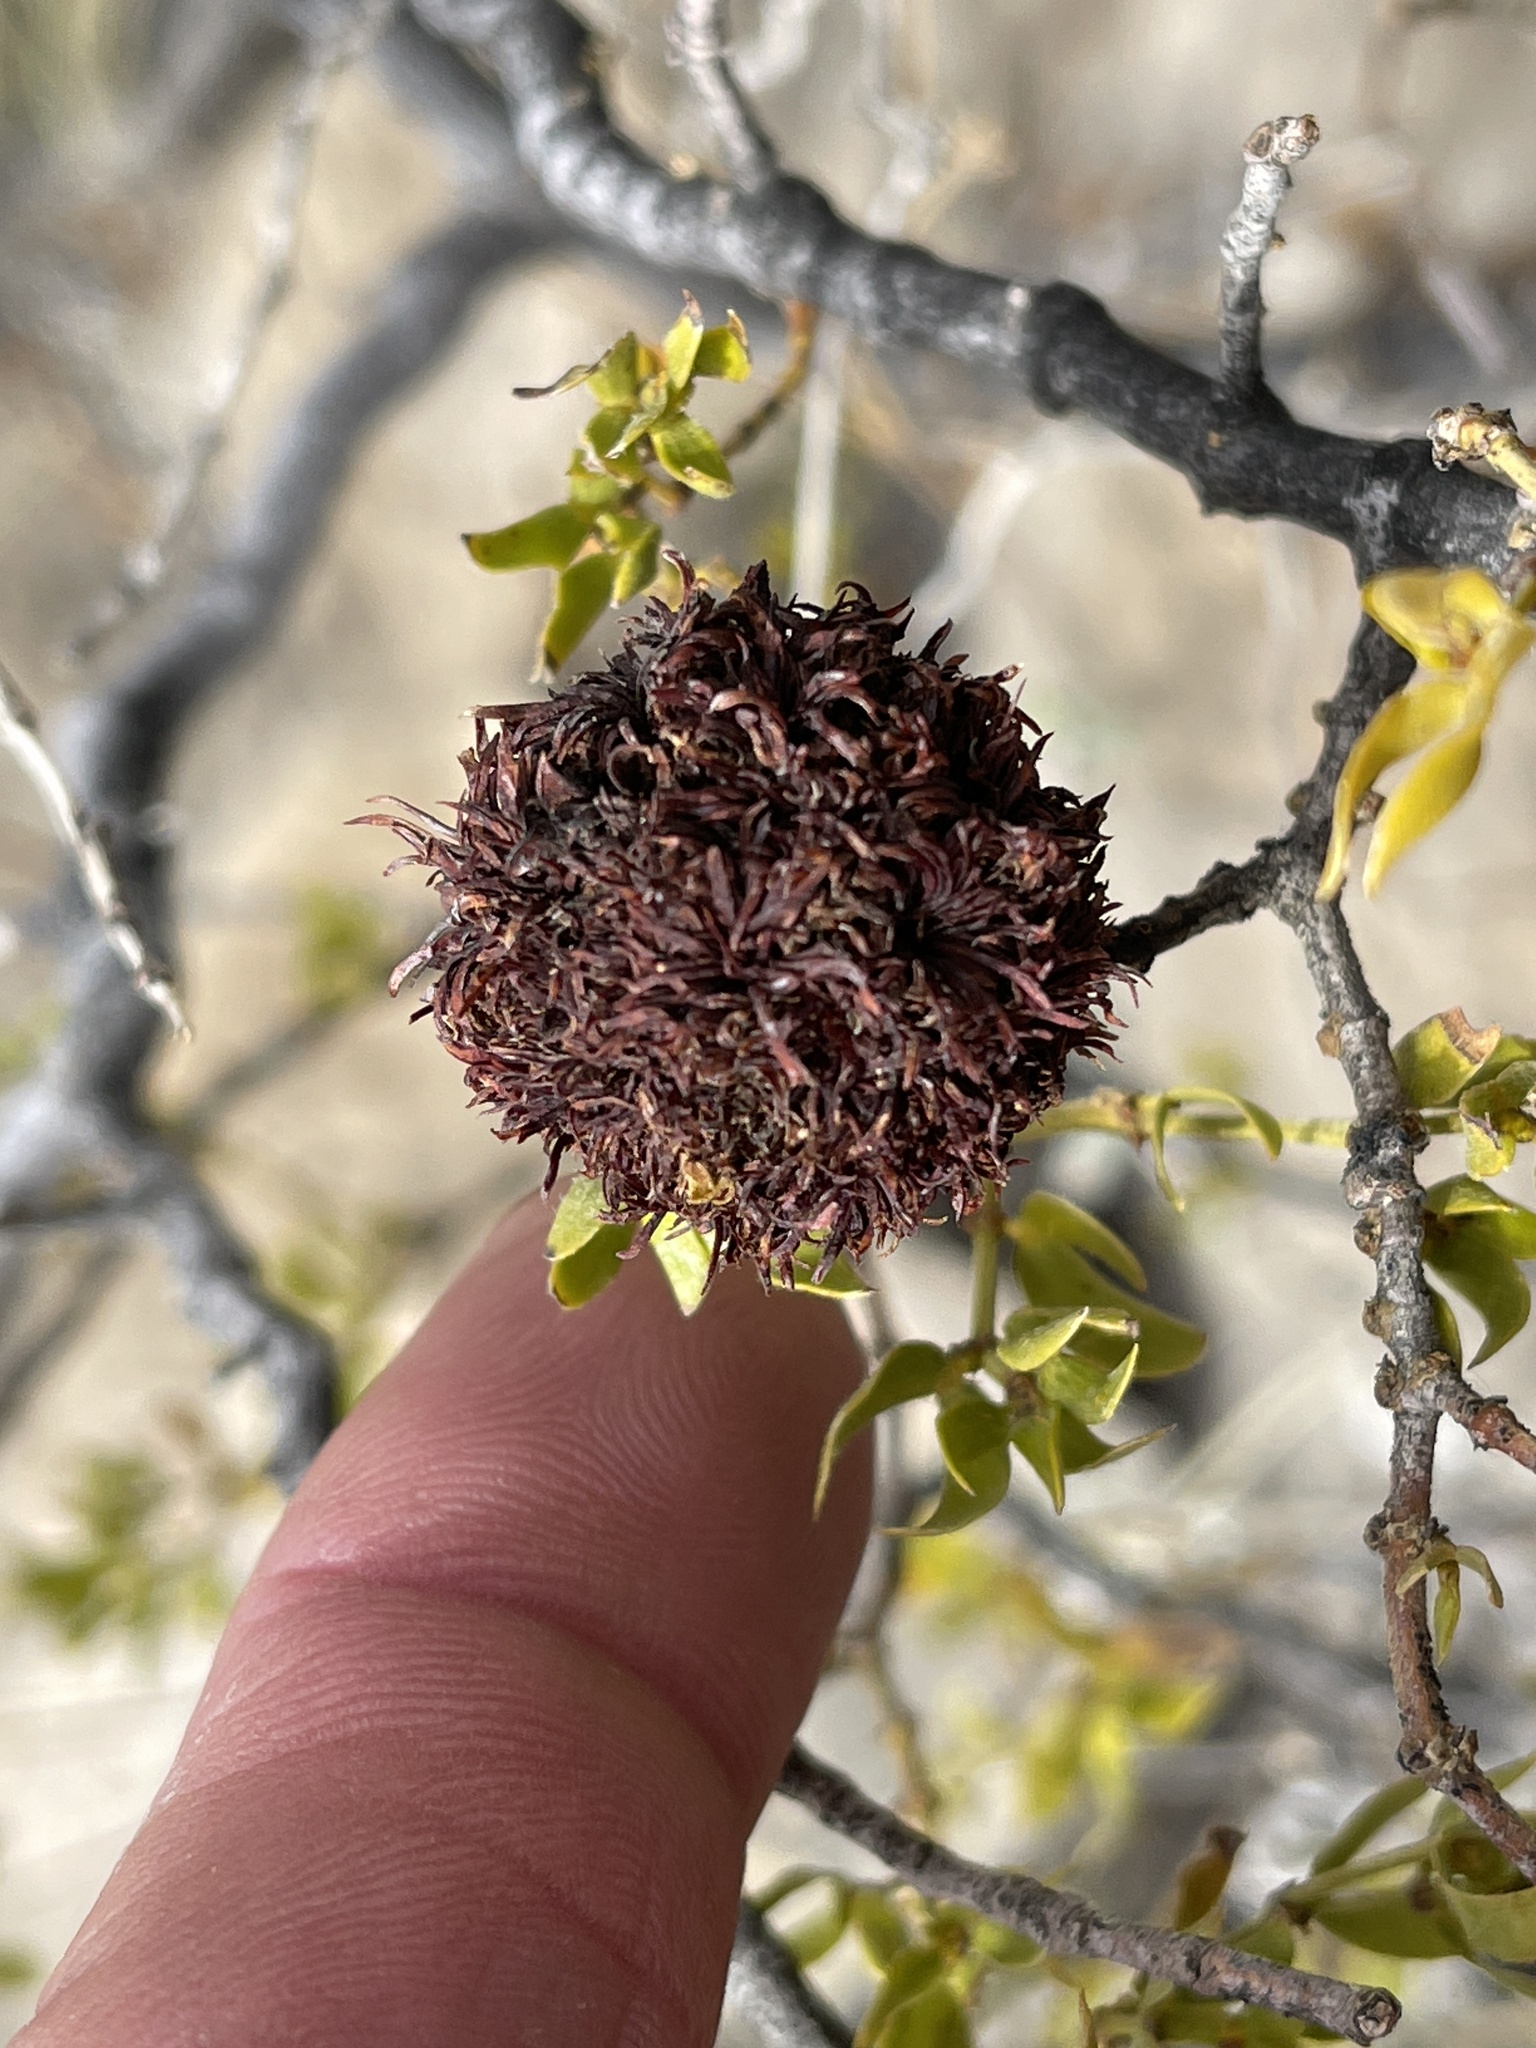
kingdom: Animalia
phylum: Arthropoda
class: Insecta
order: Diptera
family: Cecidomyiidae
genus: Asphondylia
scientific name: Asphondylia auripila
